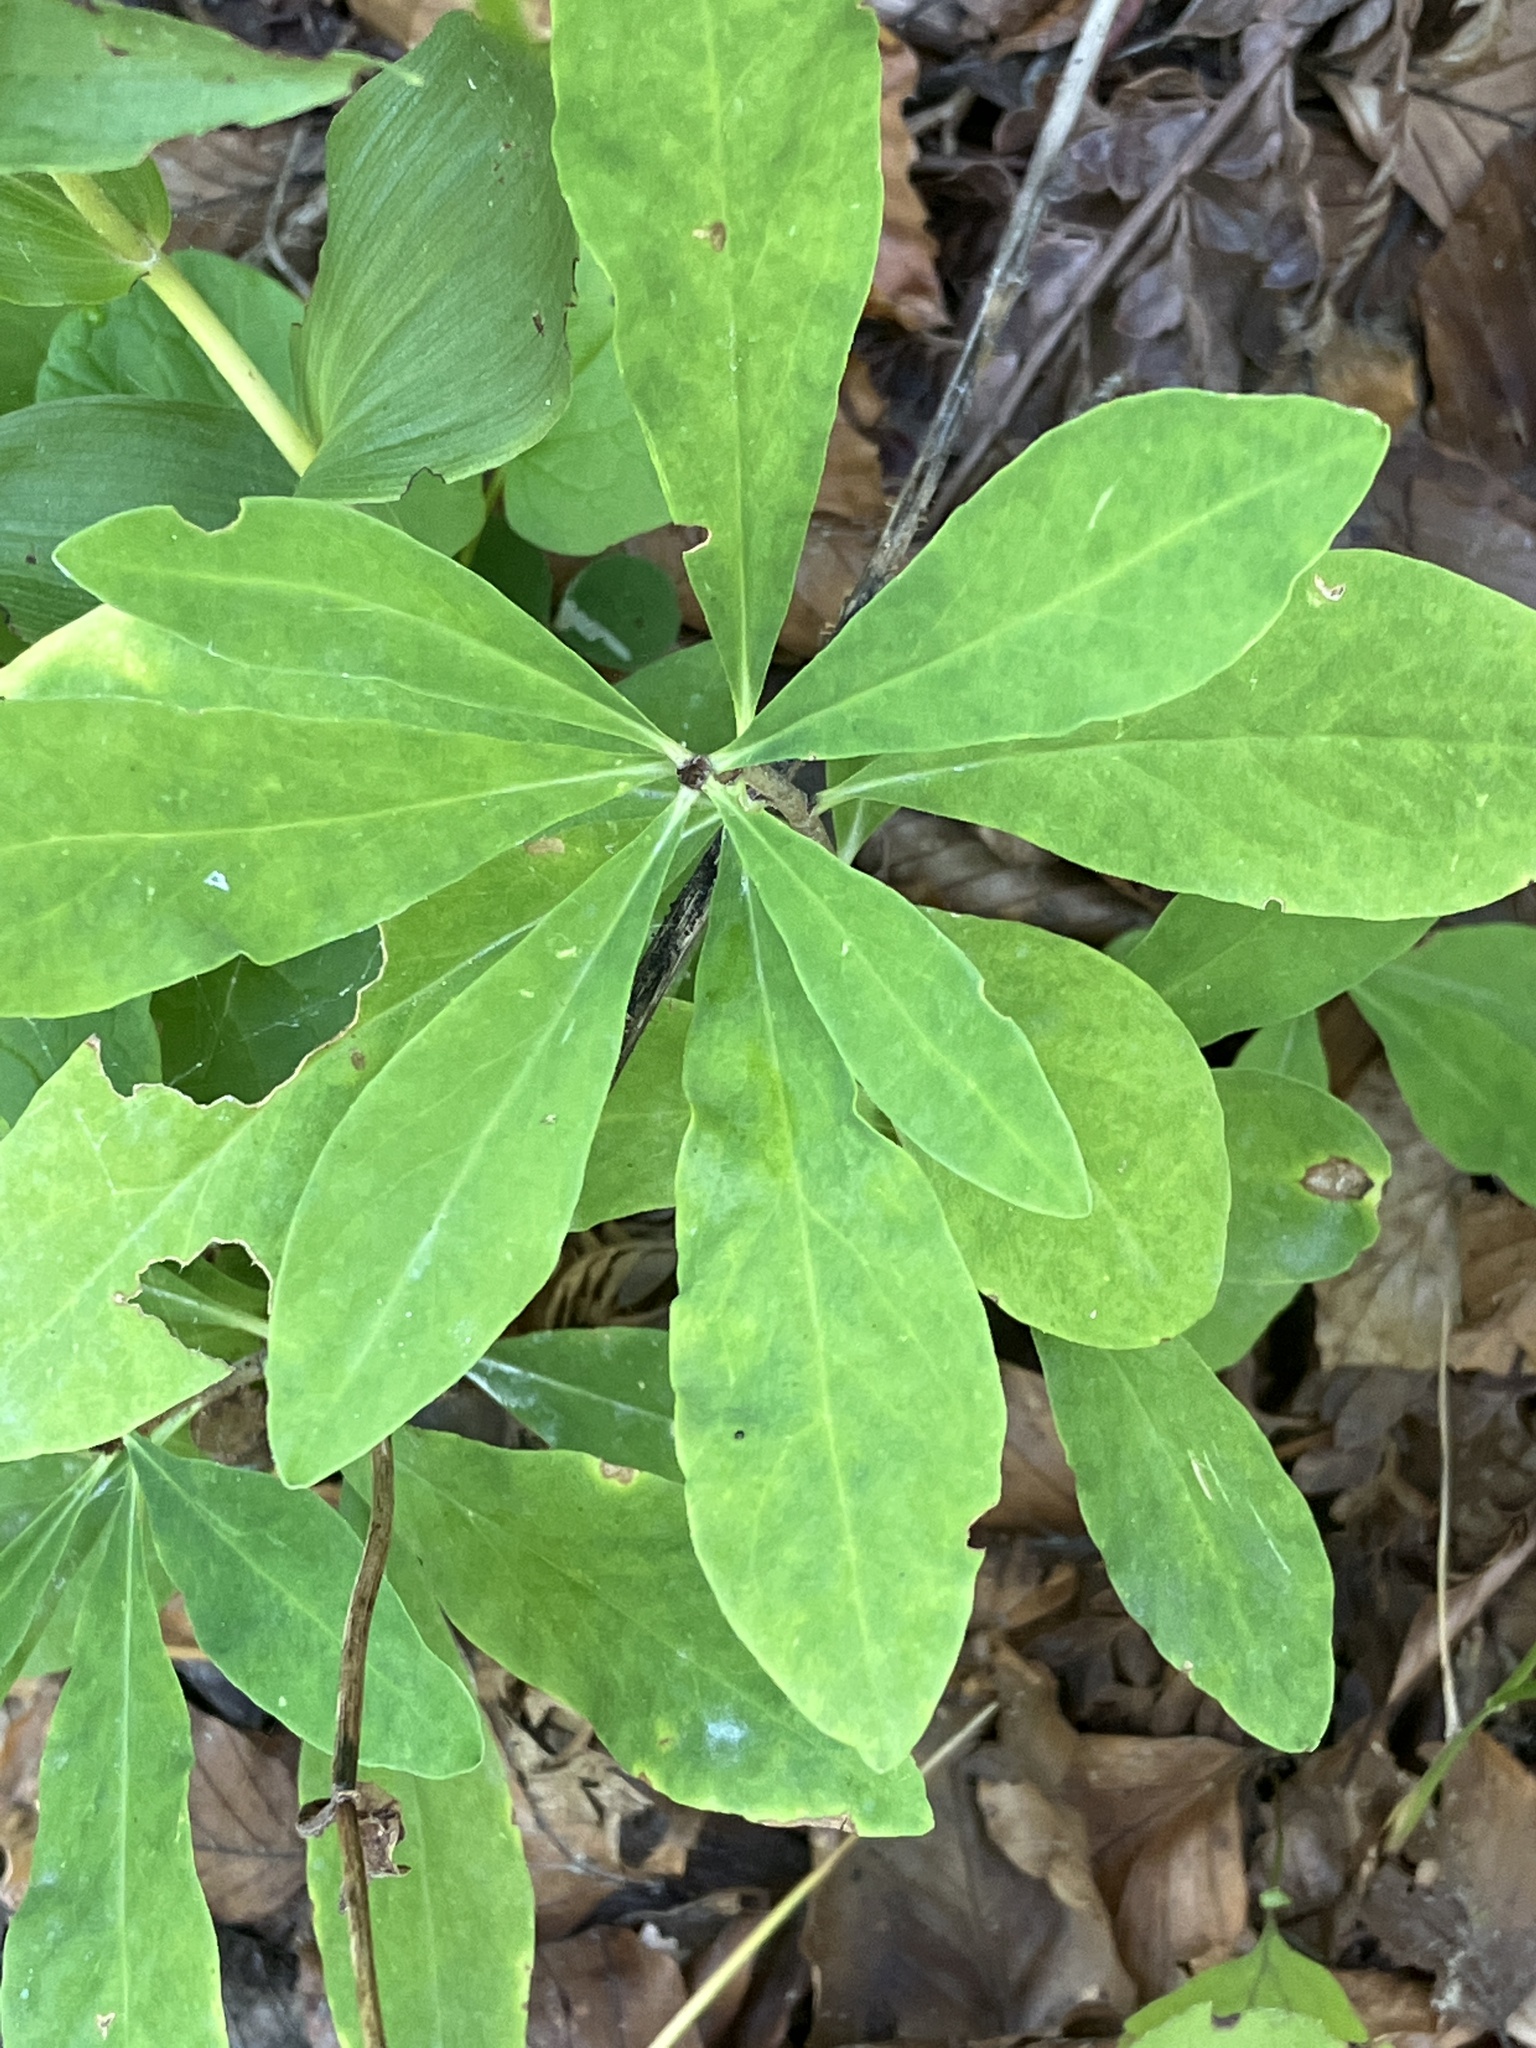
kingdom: Plantae
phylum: Tracheophyta
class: Magnoliopsida
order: Malvales
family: Thymelaeaceae
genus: Daphne
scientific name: Daphne mezereum
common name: Mezereon
